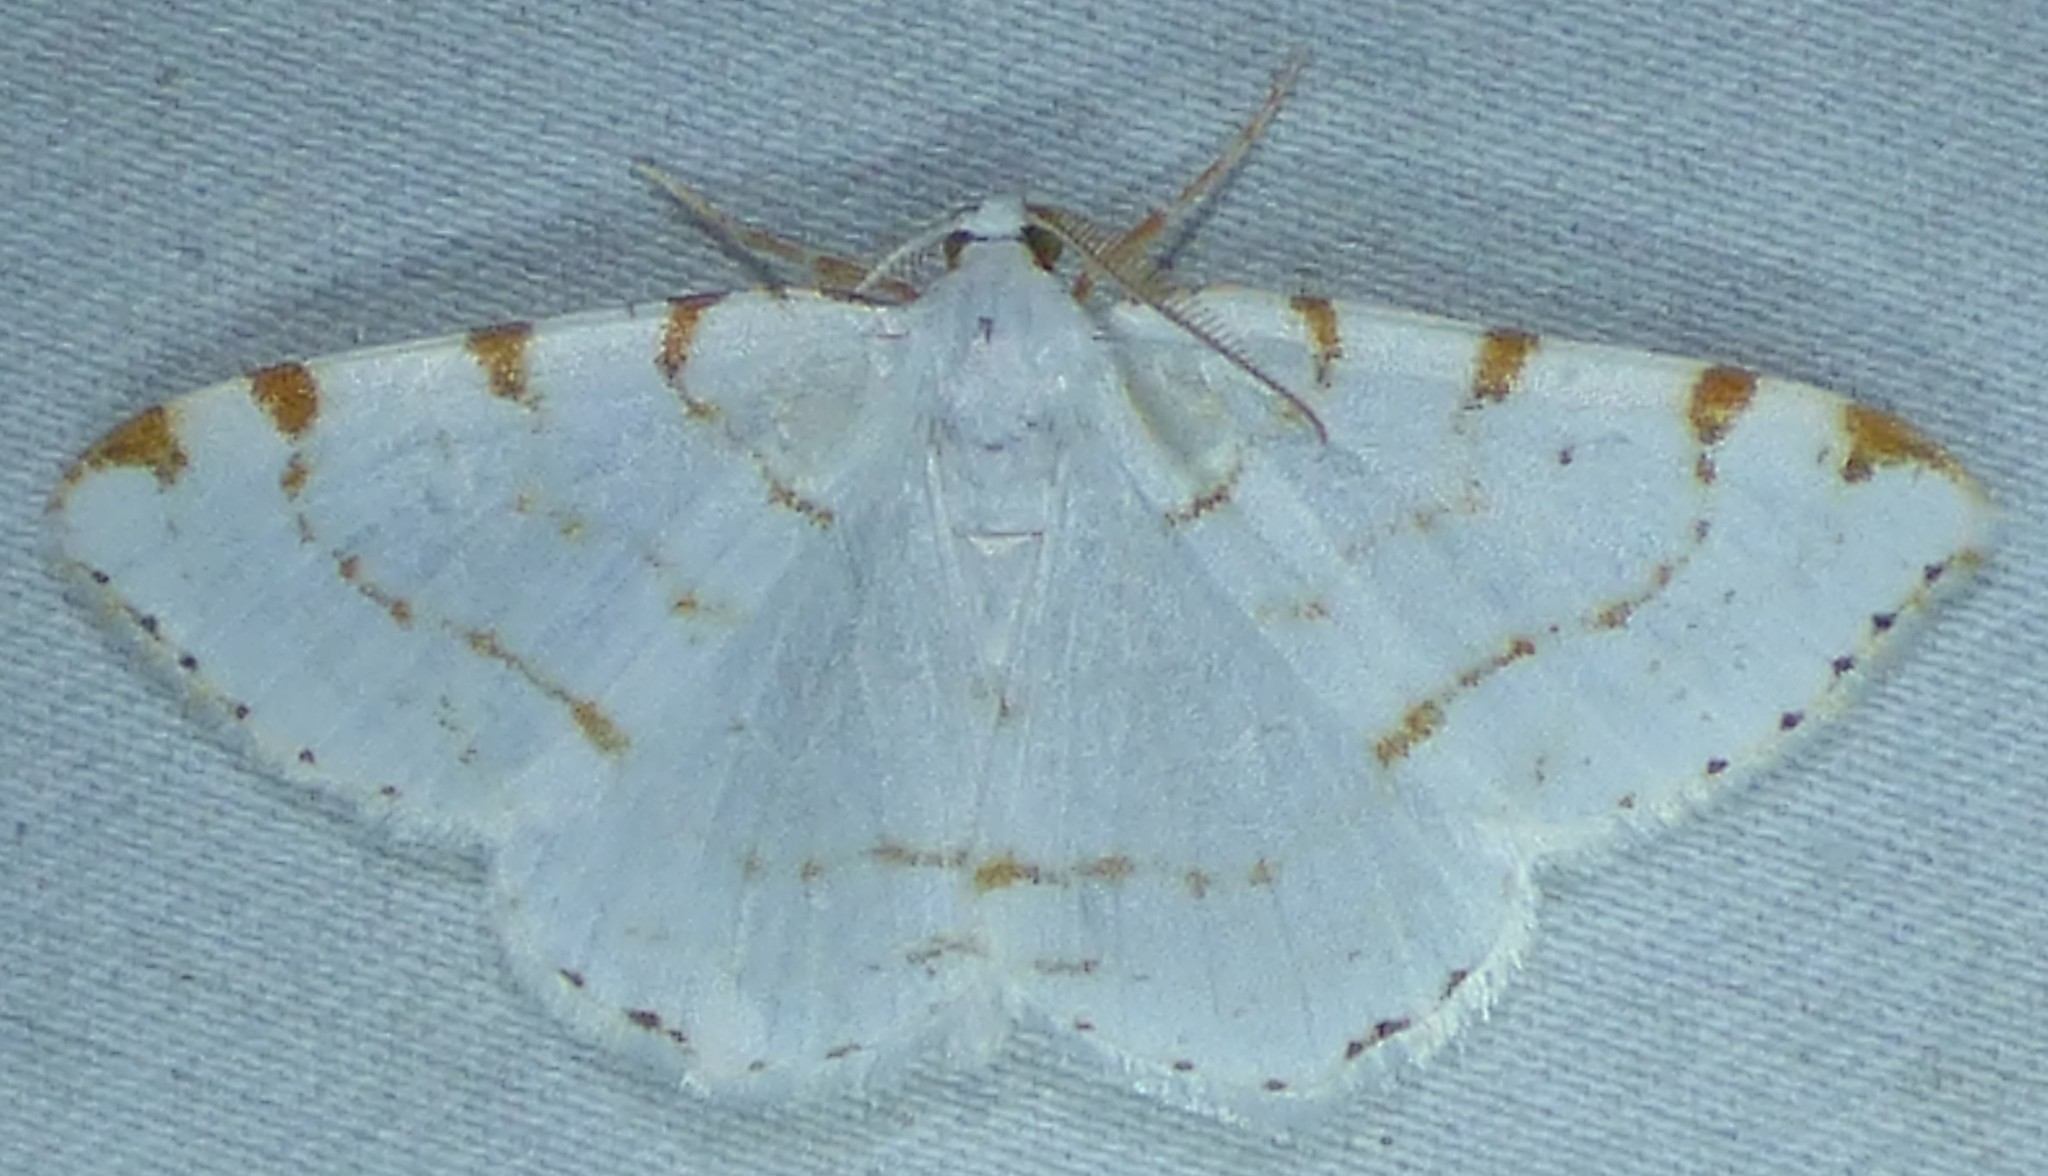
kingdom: Animalia
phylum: Arthropoda
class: Insecta
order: Lepidoptera
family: Geometridae
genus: Macaria
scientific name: Macaria pustularia
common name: Lesser maple spanworm moth
